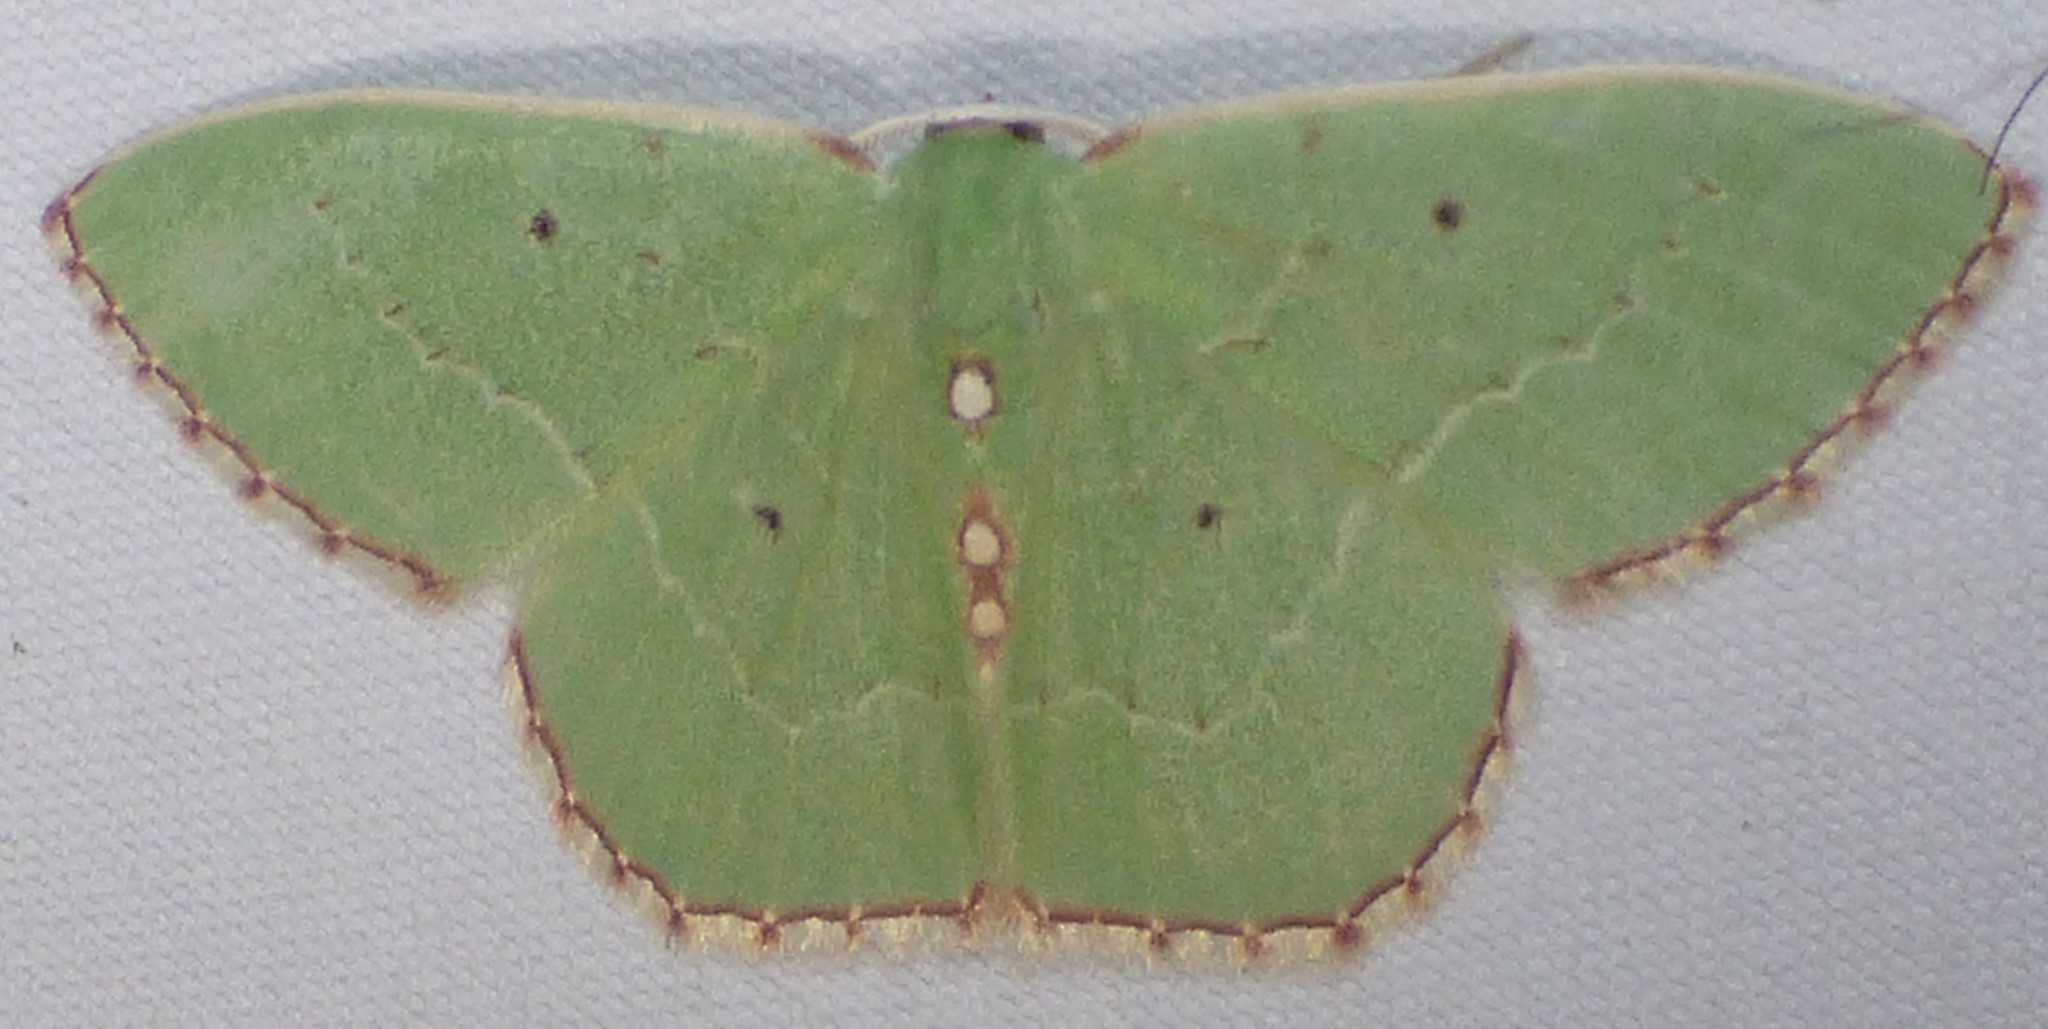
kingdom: Animalia
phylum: Arthropoda
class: Insecta
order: Lepidoptera
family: Geometridae
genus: Nemoria
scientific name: Nemoria lixaria
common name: Red-bordered emerald
